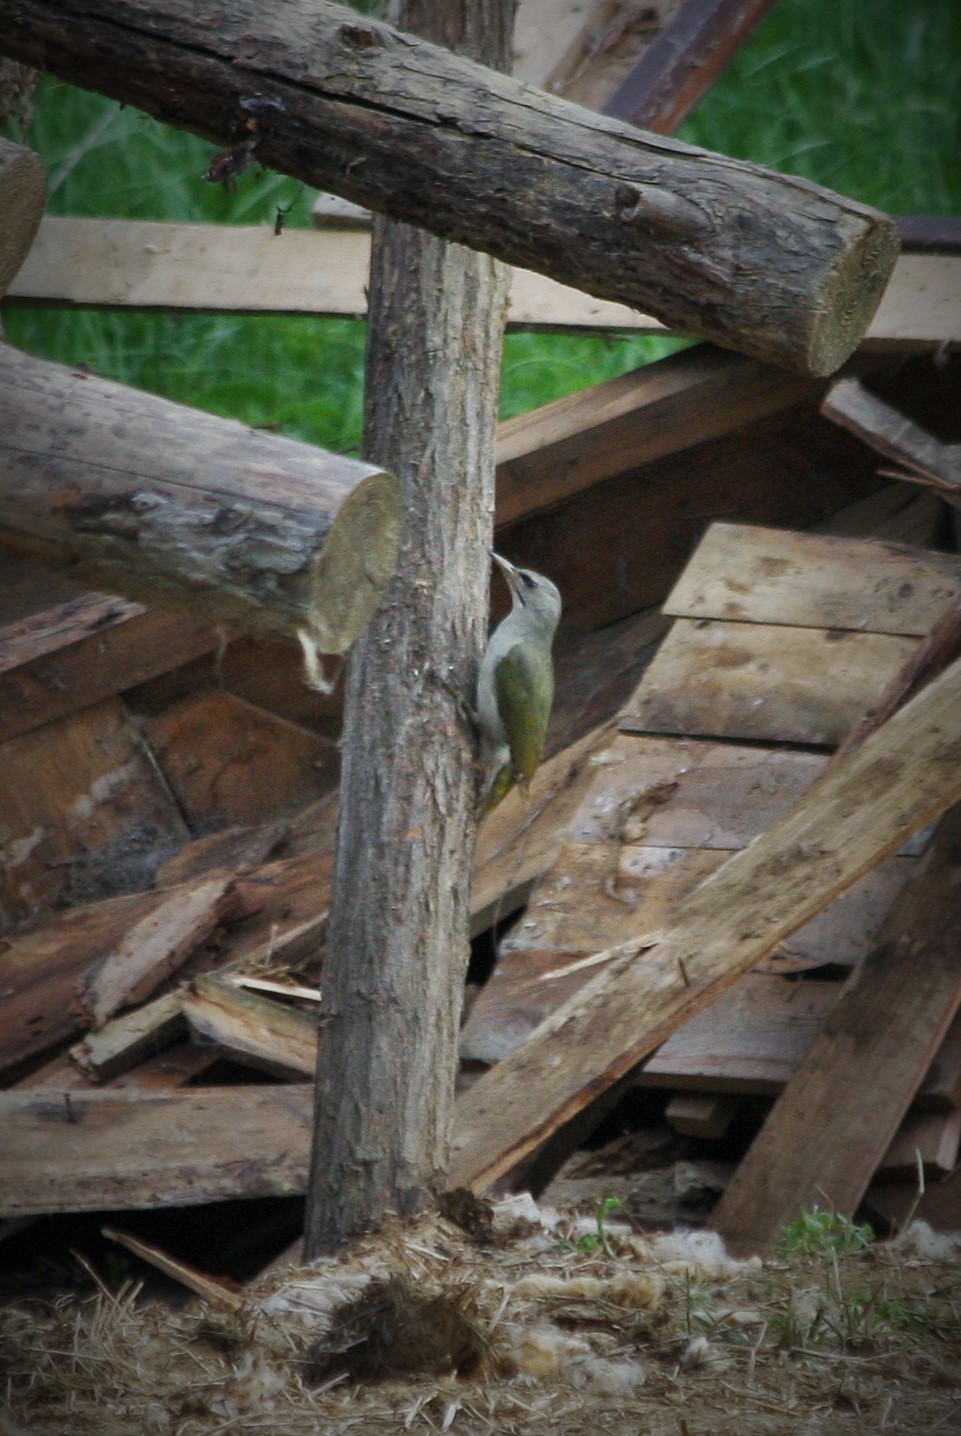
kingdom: Animalia
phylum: Chordata
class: Aves
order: Piciformes
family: Picidae
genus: Picus
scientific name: Picus canus
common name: Grey-headed woodpecker
